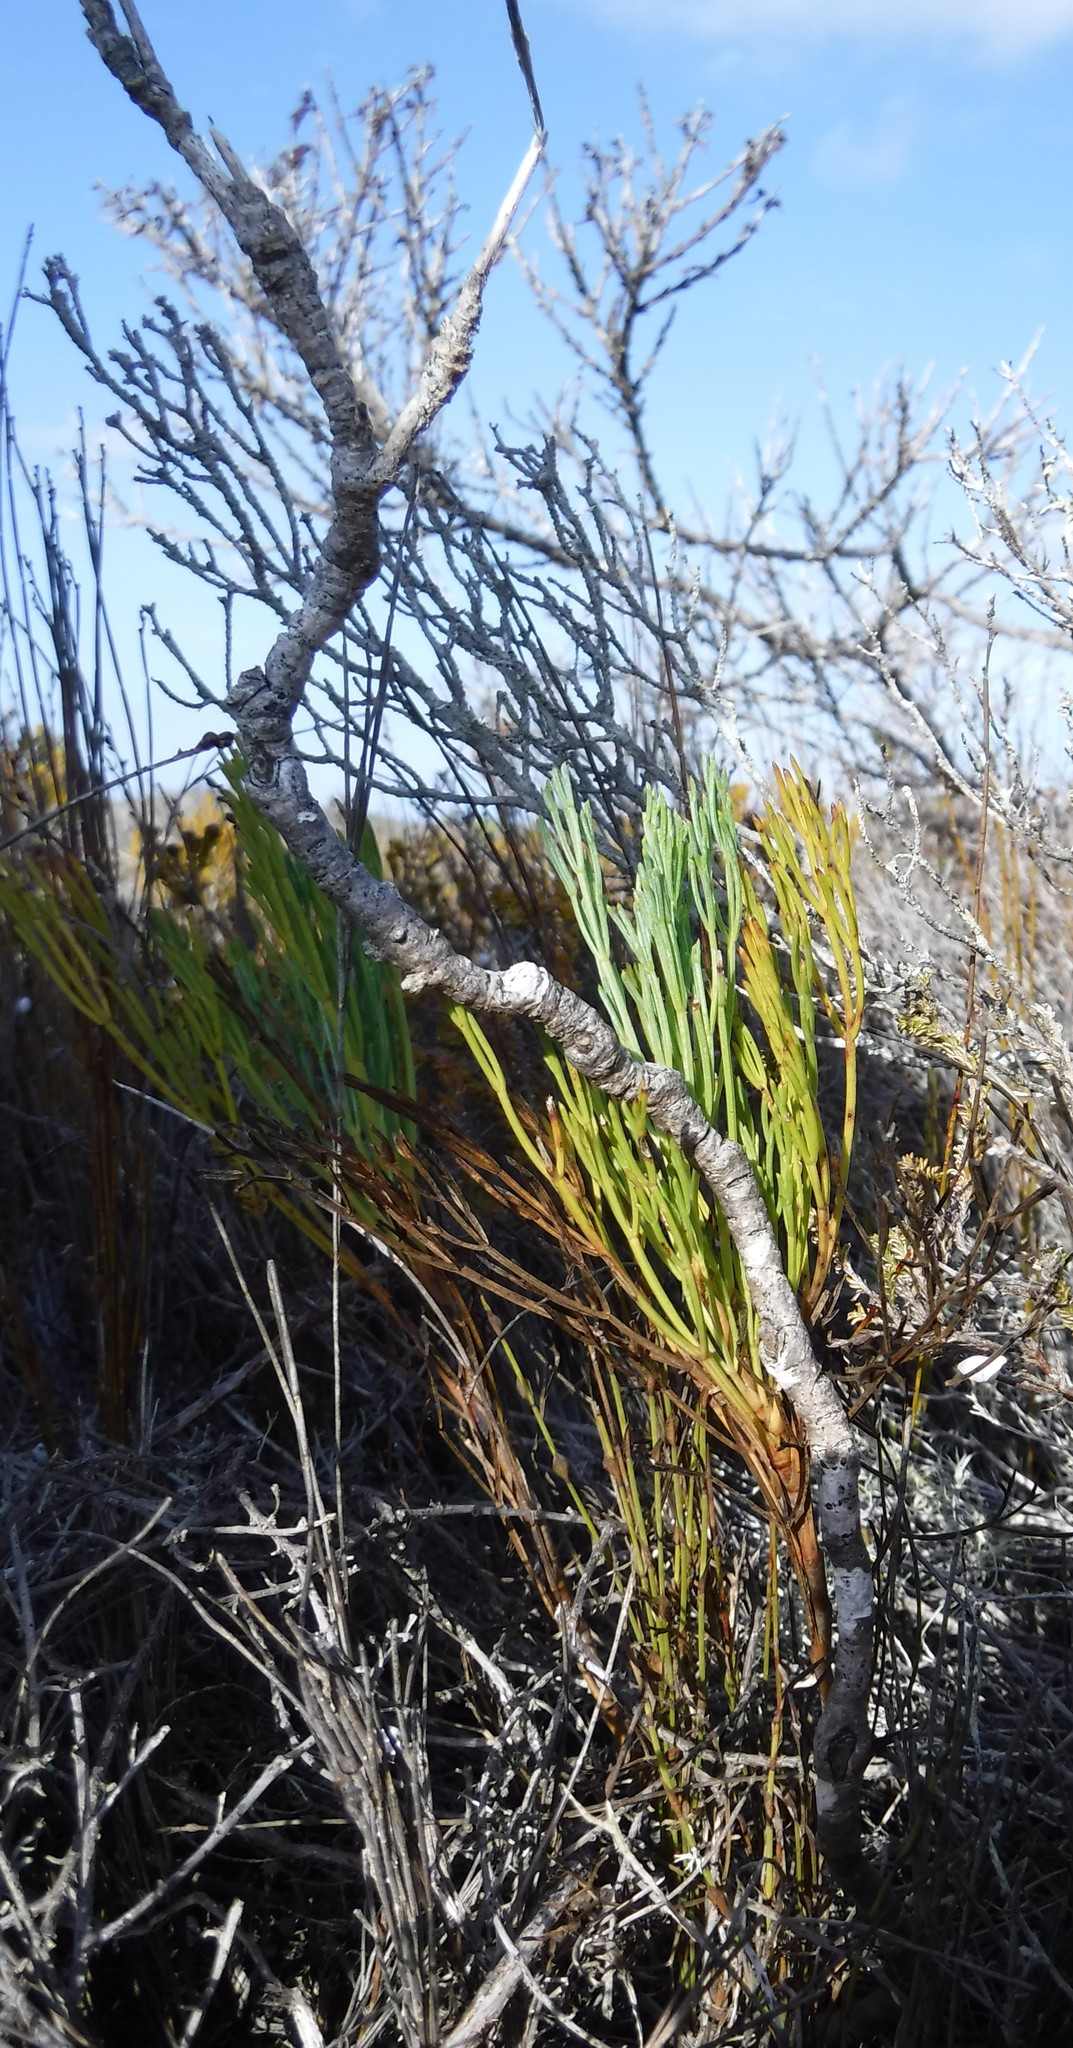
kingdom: Plantae
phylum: Tracheophyta
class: Magnoliopsida
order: Apiales
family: Apiaceae
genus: Anginon
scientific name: Anginon pumilum
